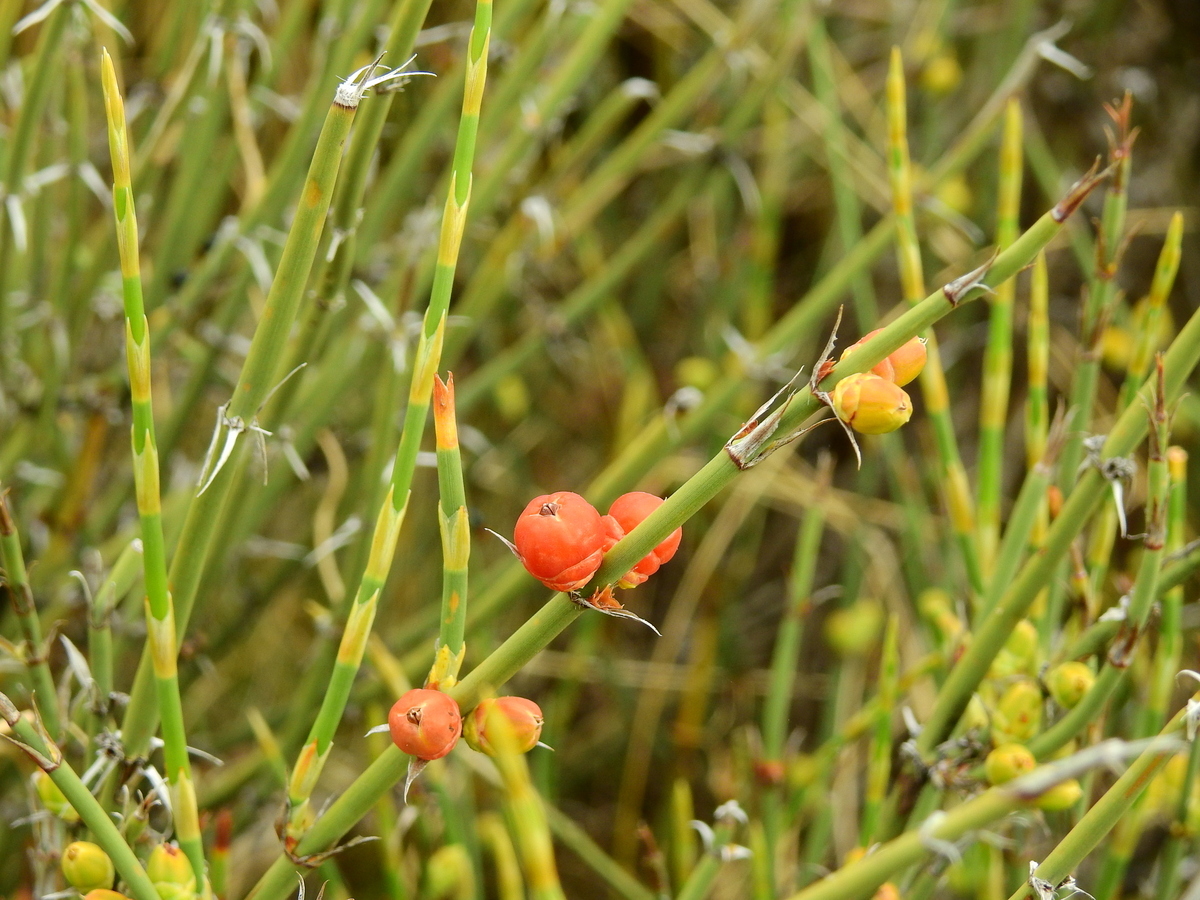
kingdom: Plantae
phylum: Tracheophyta
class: Gnetopsida
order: Ephedrales
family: Ephedraceae
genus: Ephedra
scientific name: Ephedra ochreata
